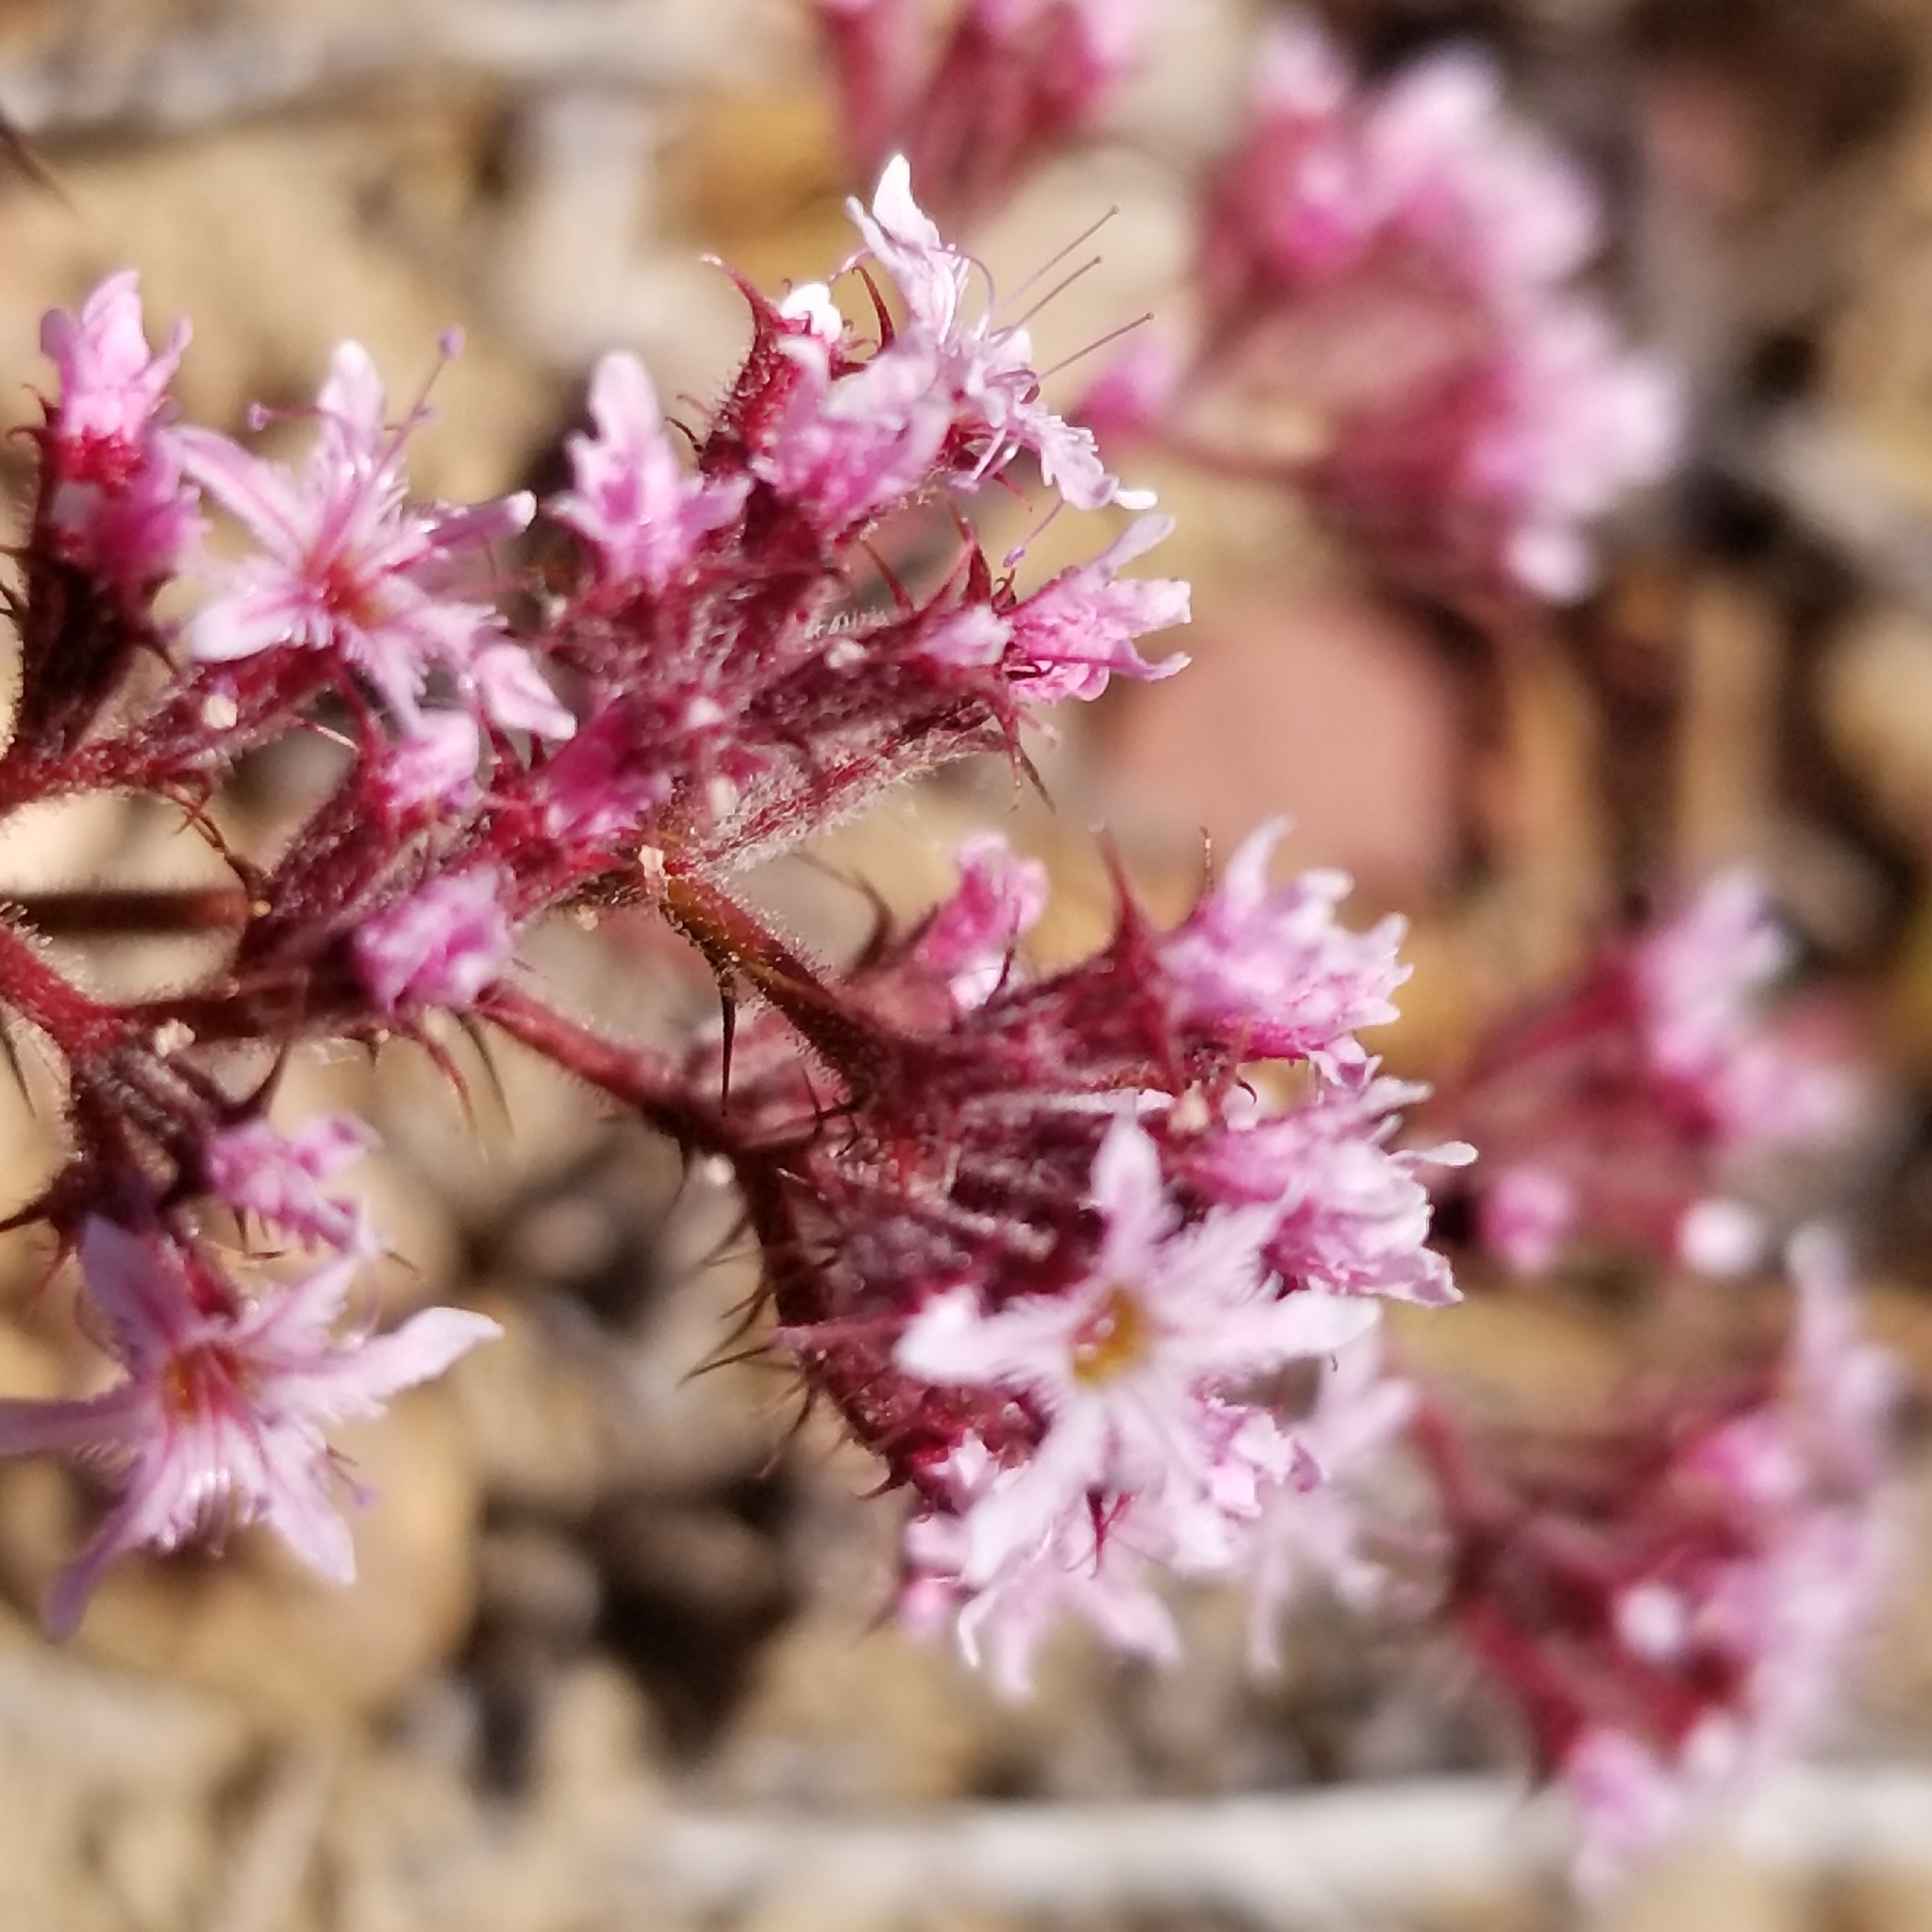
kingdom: Plantae
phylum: Tracheophyta
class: Magnoliopsida
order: Caryophyllales
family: Polygonaceae
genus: Chorizanthe
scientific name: Chorizanthe fimbriata
